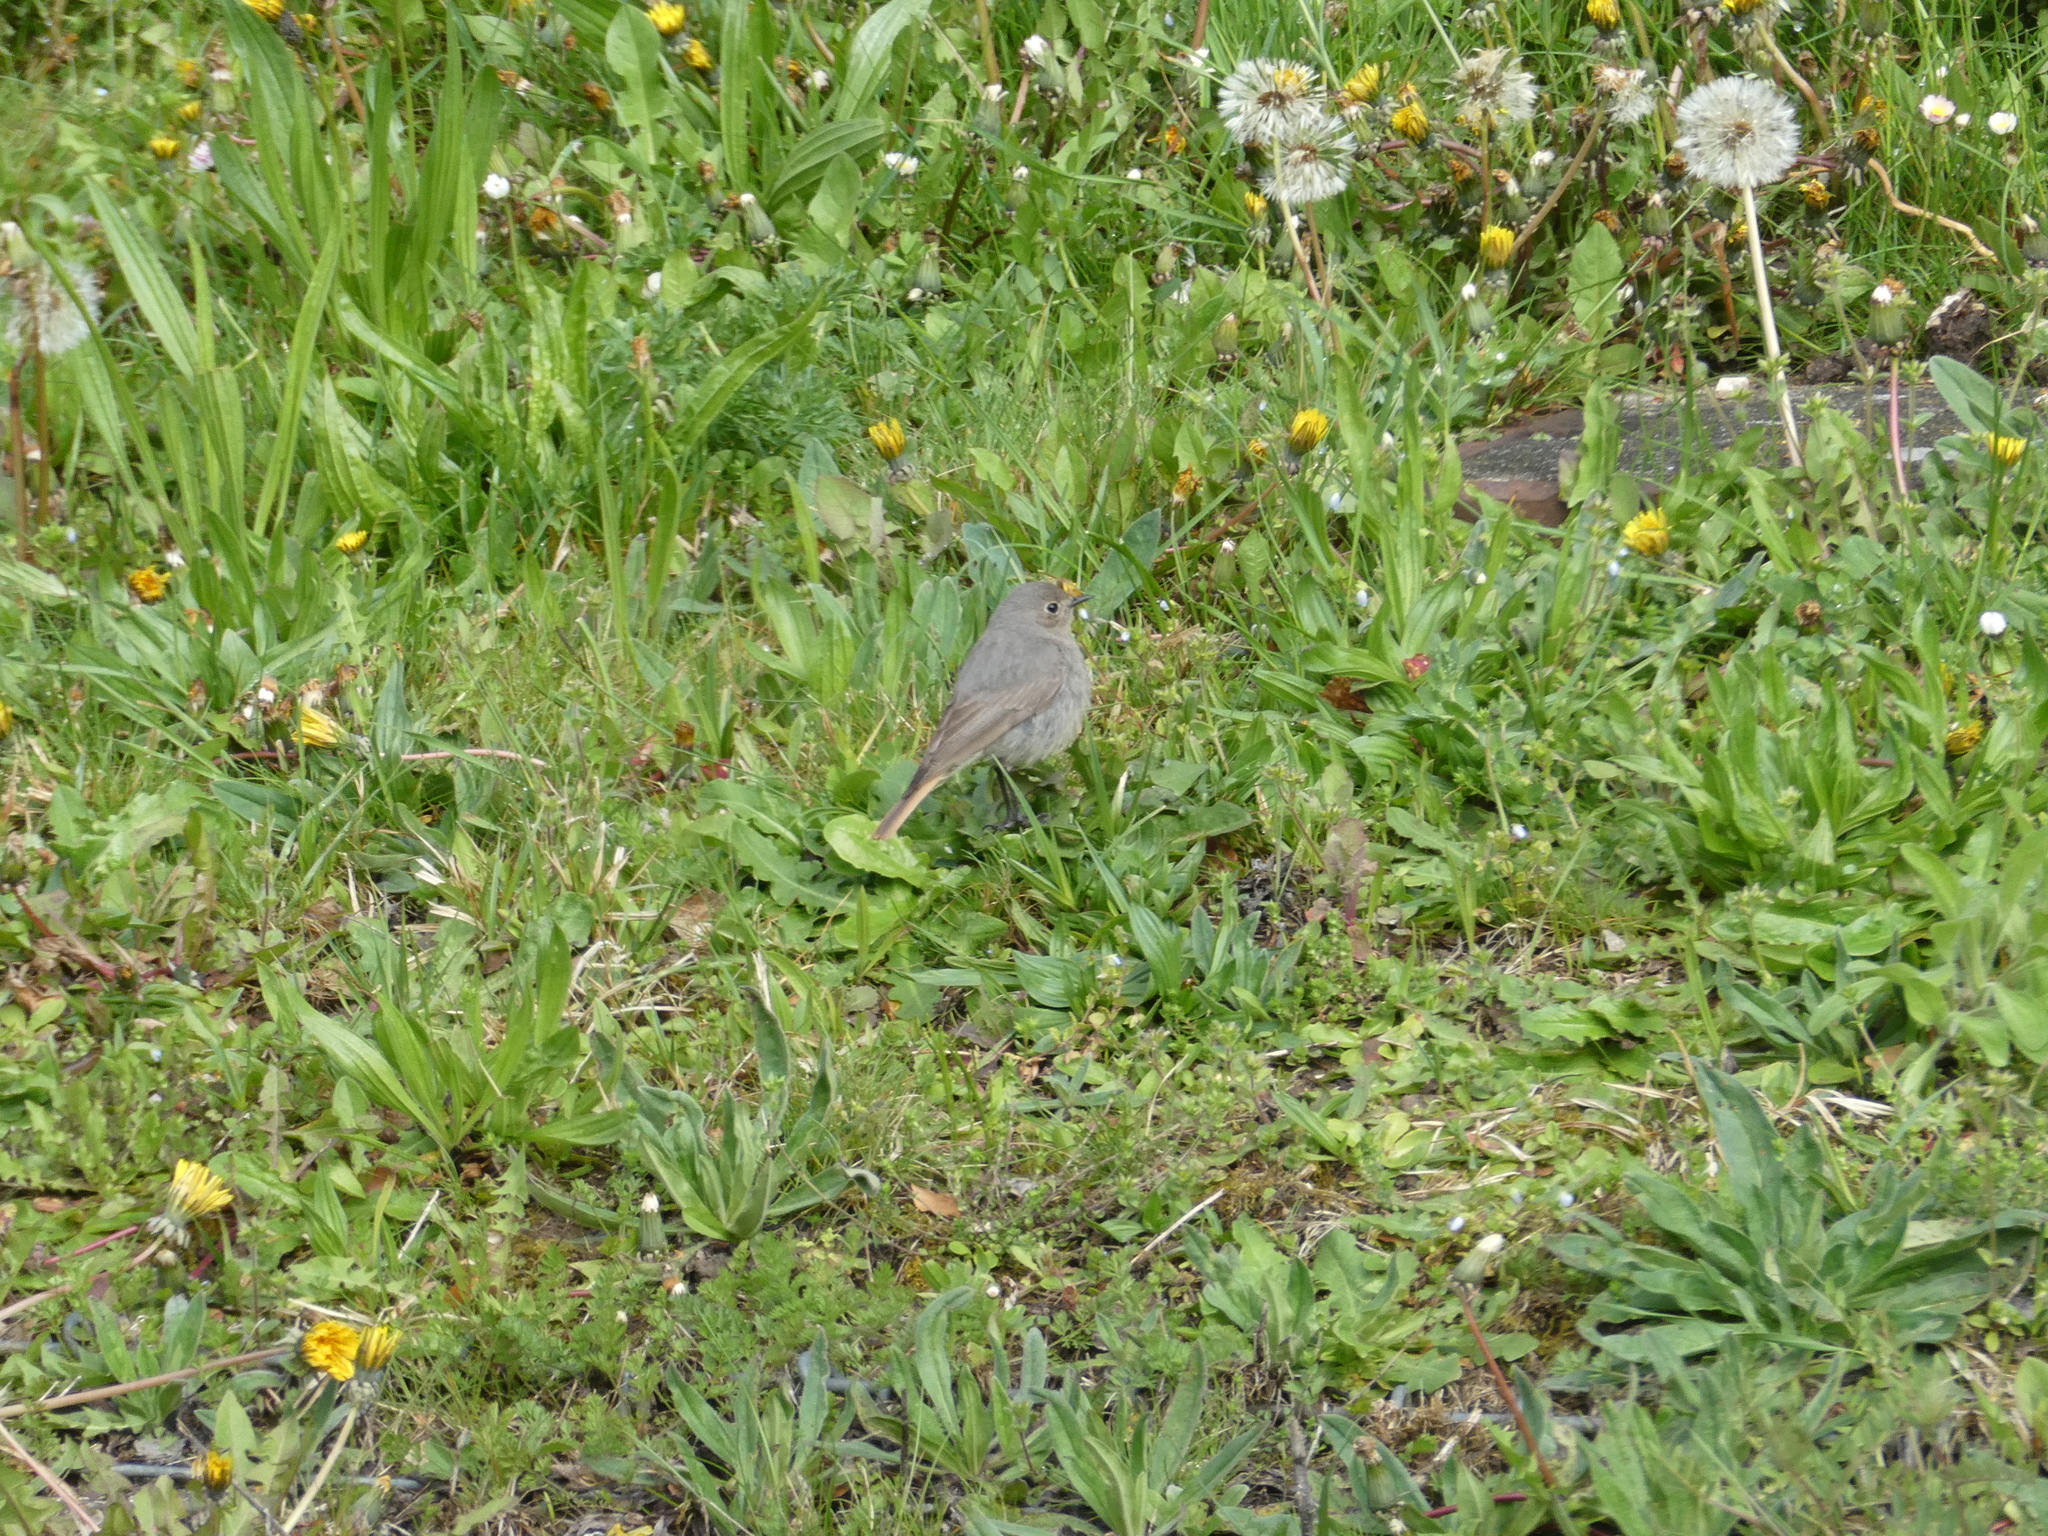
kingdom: Animalia
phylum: Chordata
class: Aves
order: Passeriformes
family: Muscicapidae
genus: Phoenicurus
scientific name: Phoenicurus ochruros
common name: Black redstart
